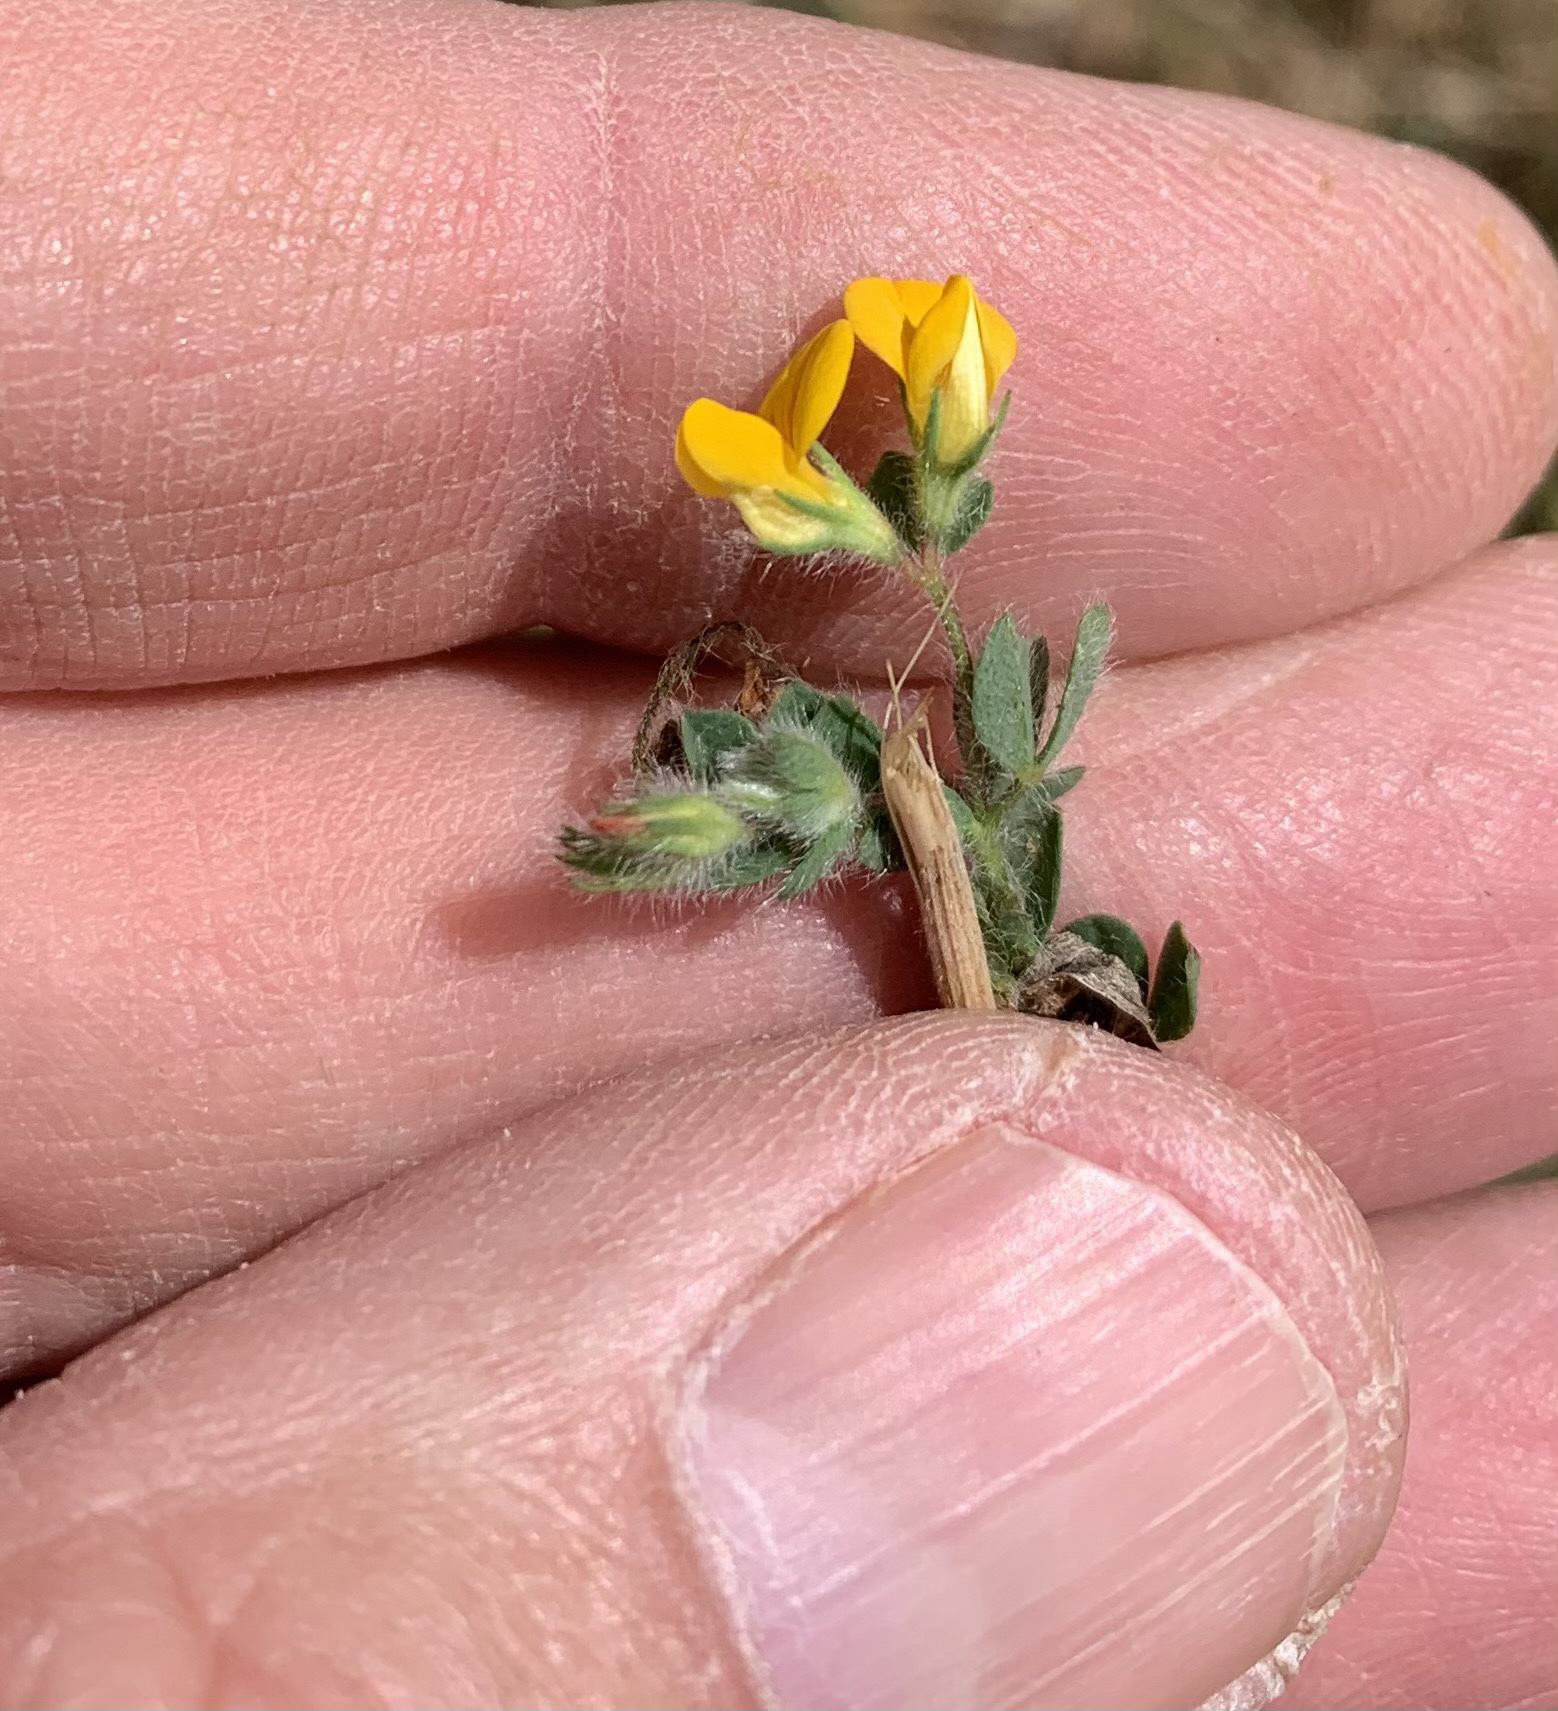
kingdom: Plantae
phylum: Tracheophyta
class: Magnoliopsida
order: Fabales
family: Fabaceae
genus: Lotus
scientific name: Lotus subbiflorus
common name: Hairy bird's-foot trefoil
